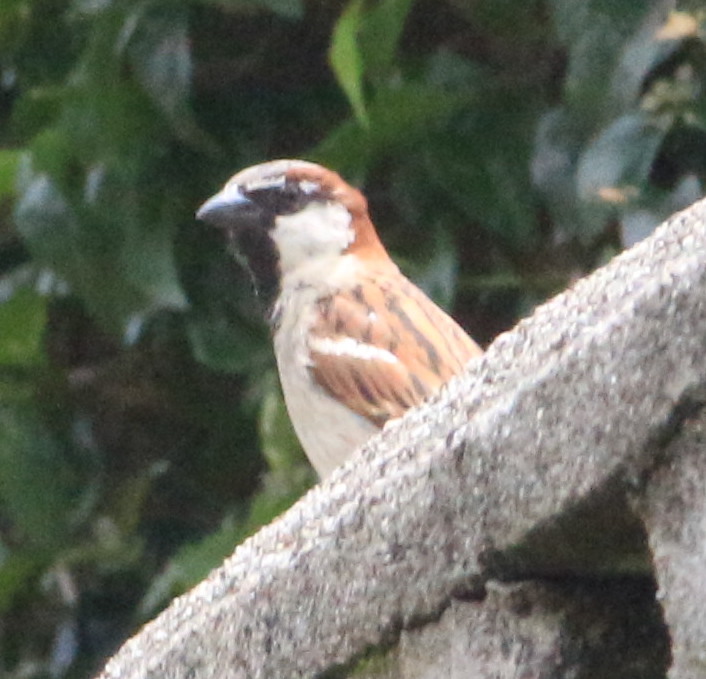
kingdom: Animalia
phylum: Chordata
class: Aves
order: Passeriformes
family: Passeridae
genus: Passer
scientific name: Passer domesticus
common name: House sparrow
